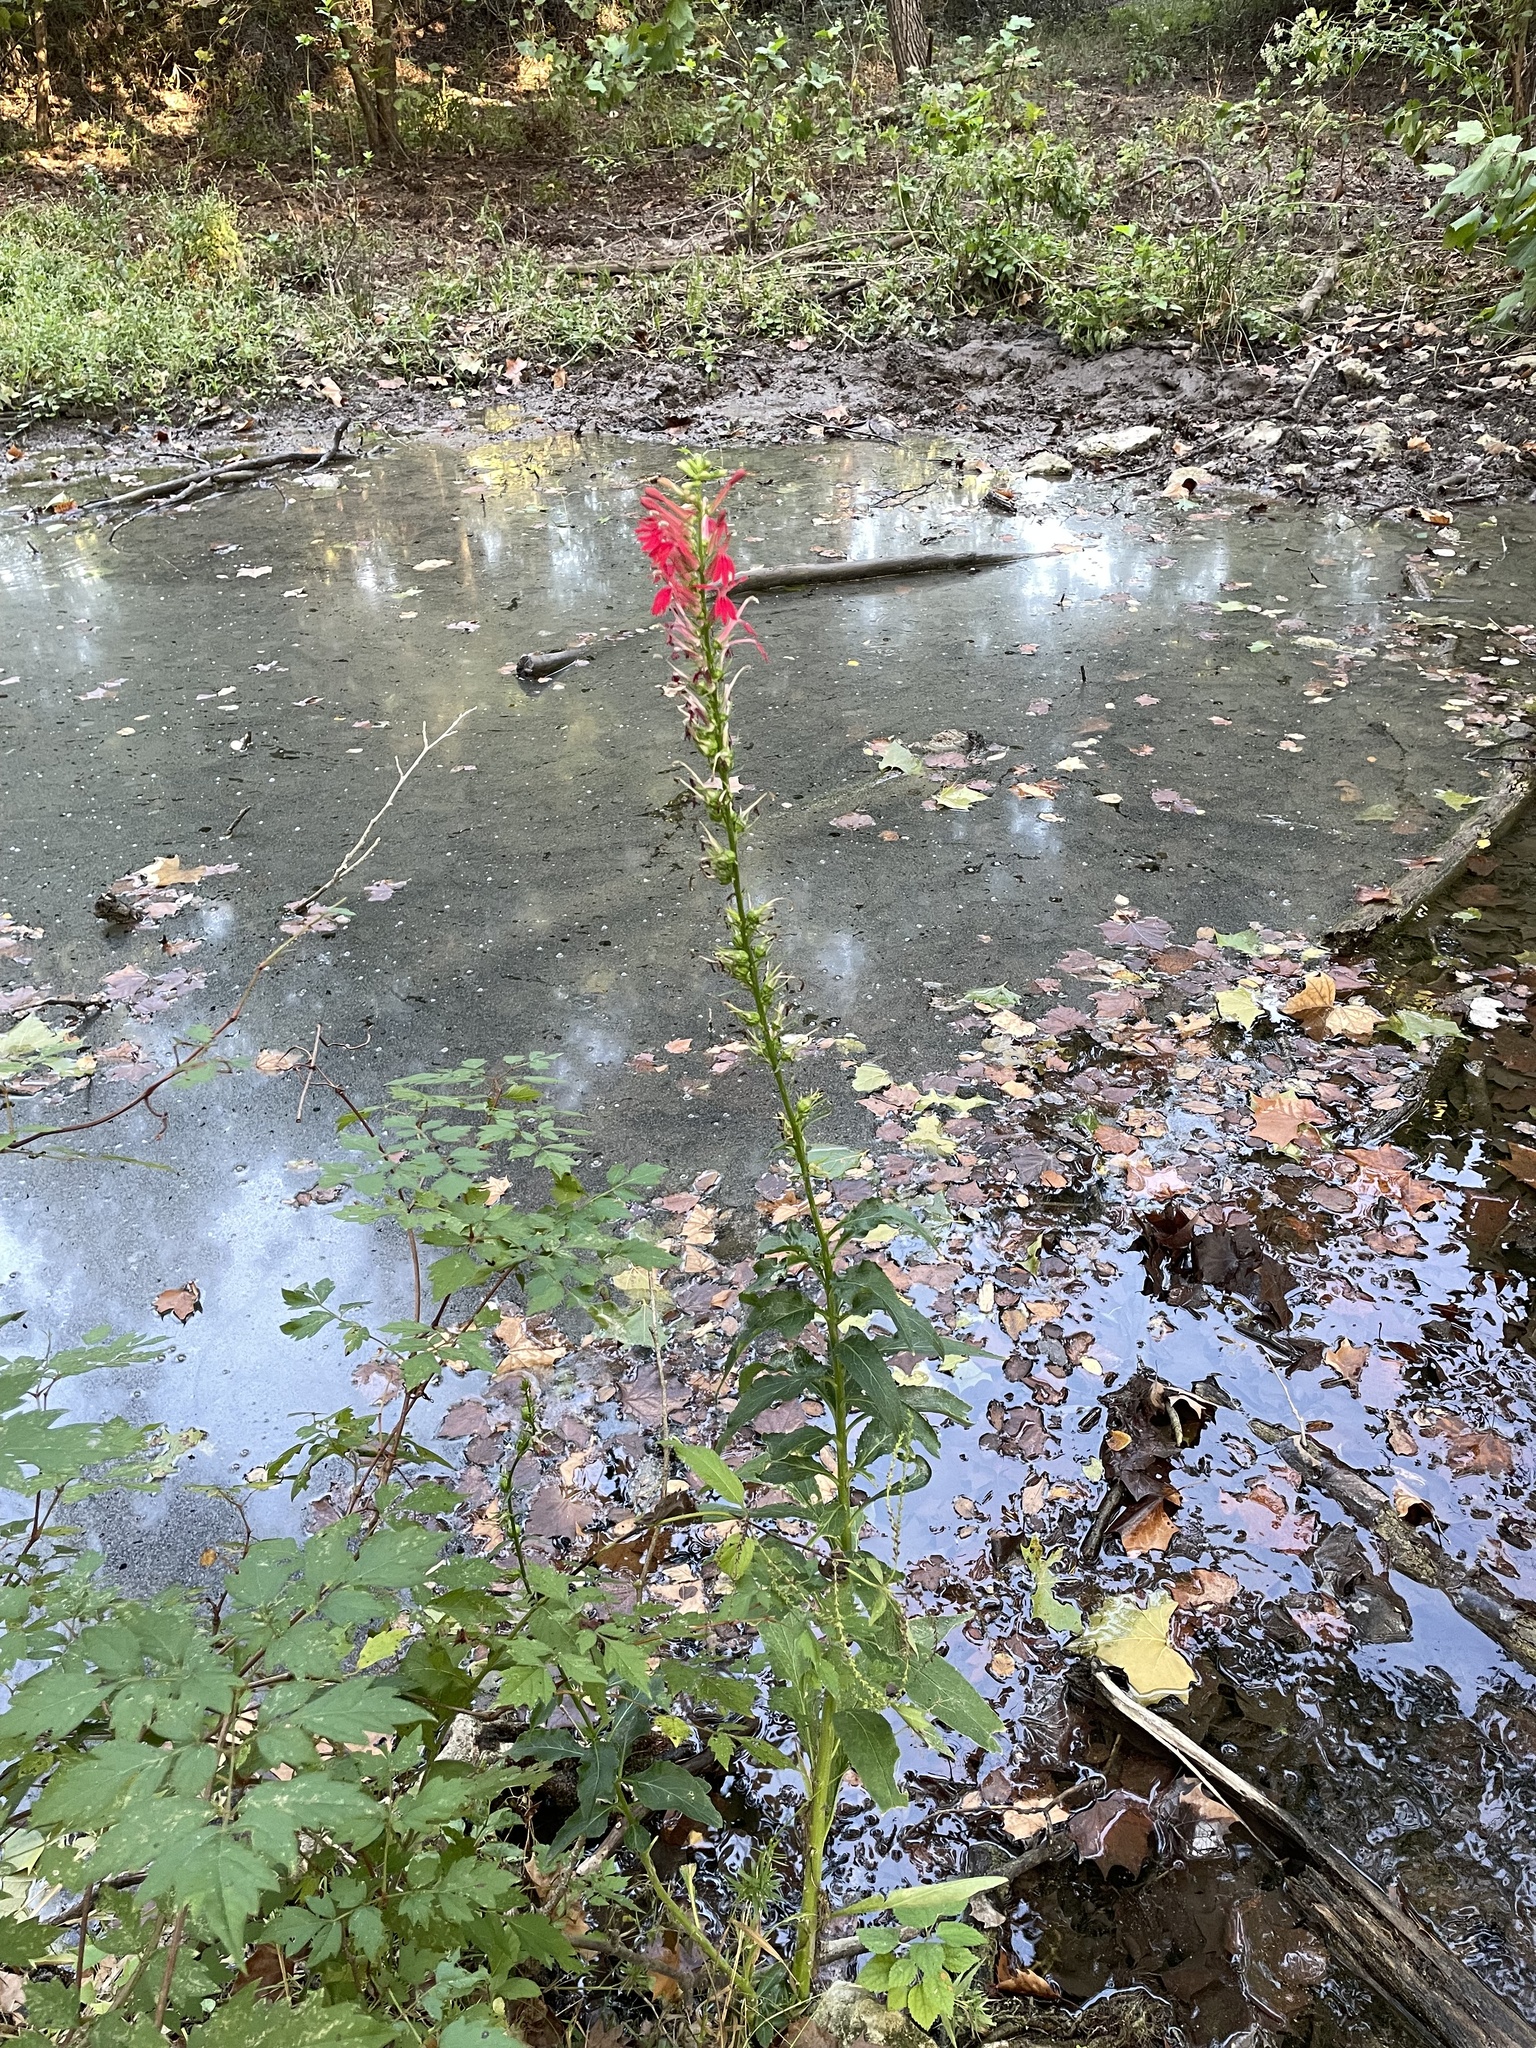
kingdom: Plantae
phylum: Tracheophyta
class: Magnoliopsida
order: Asterales
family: Campanulaceae
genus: Lobelia
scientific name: Lobelia cardinalis
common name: Cardinal flower
